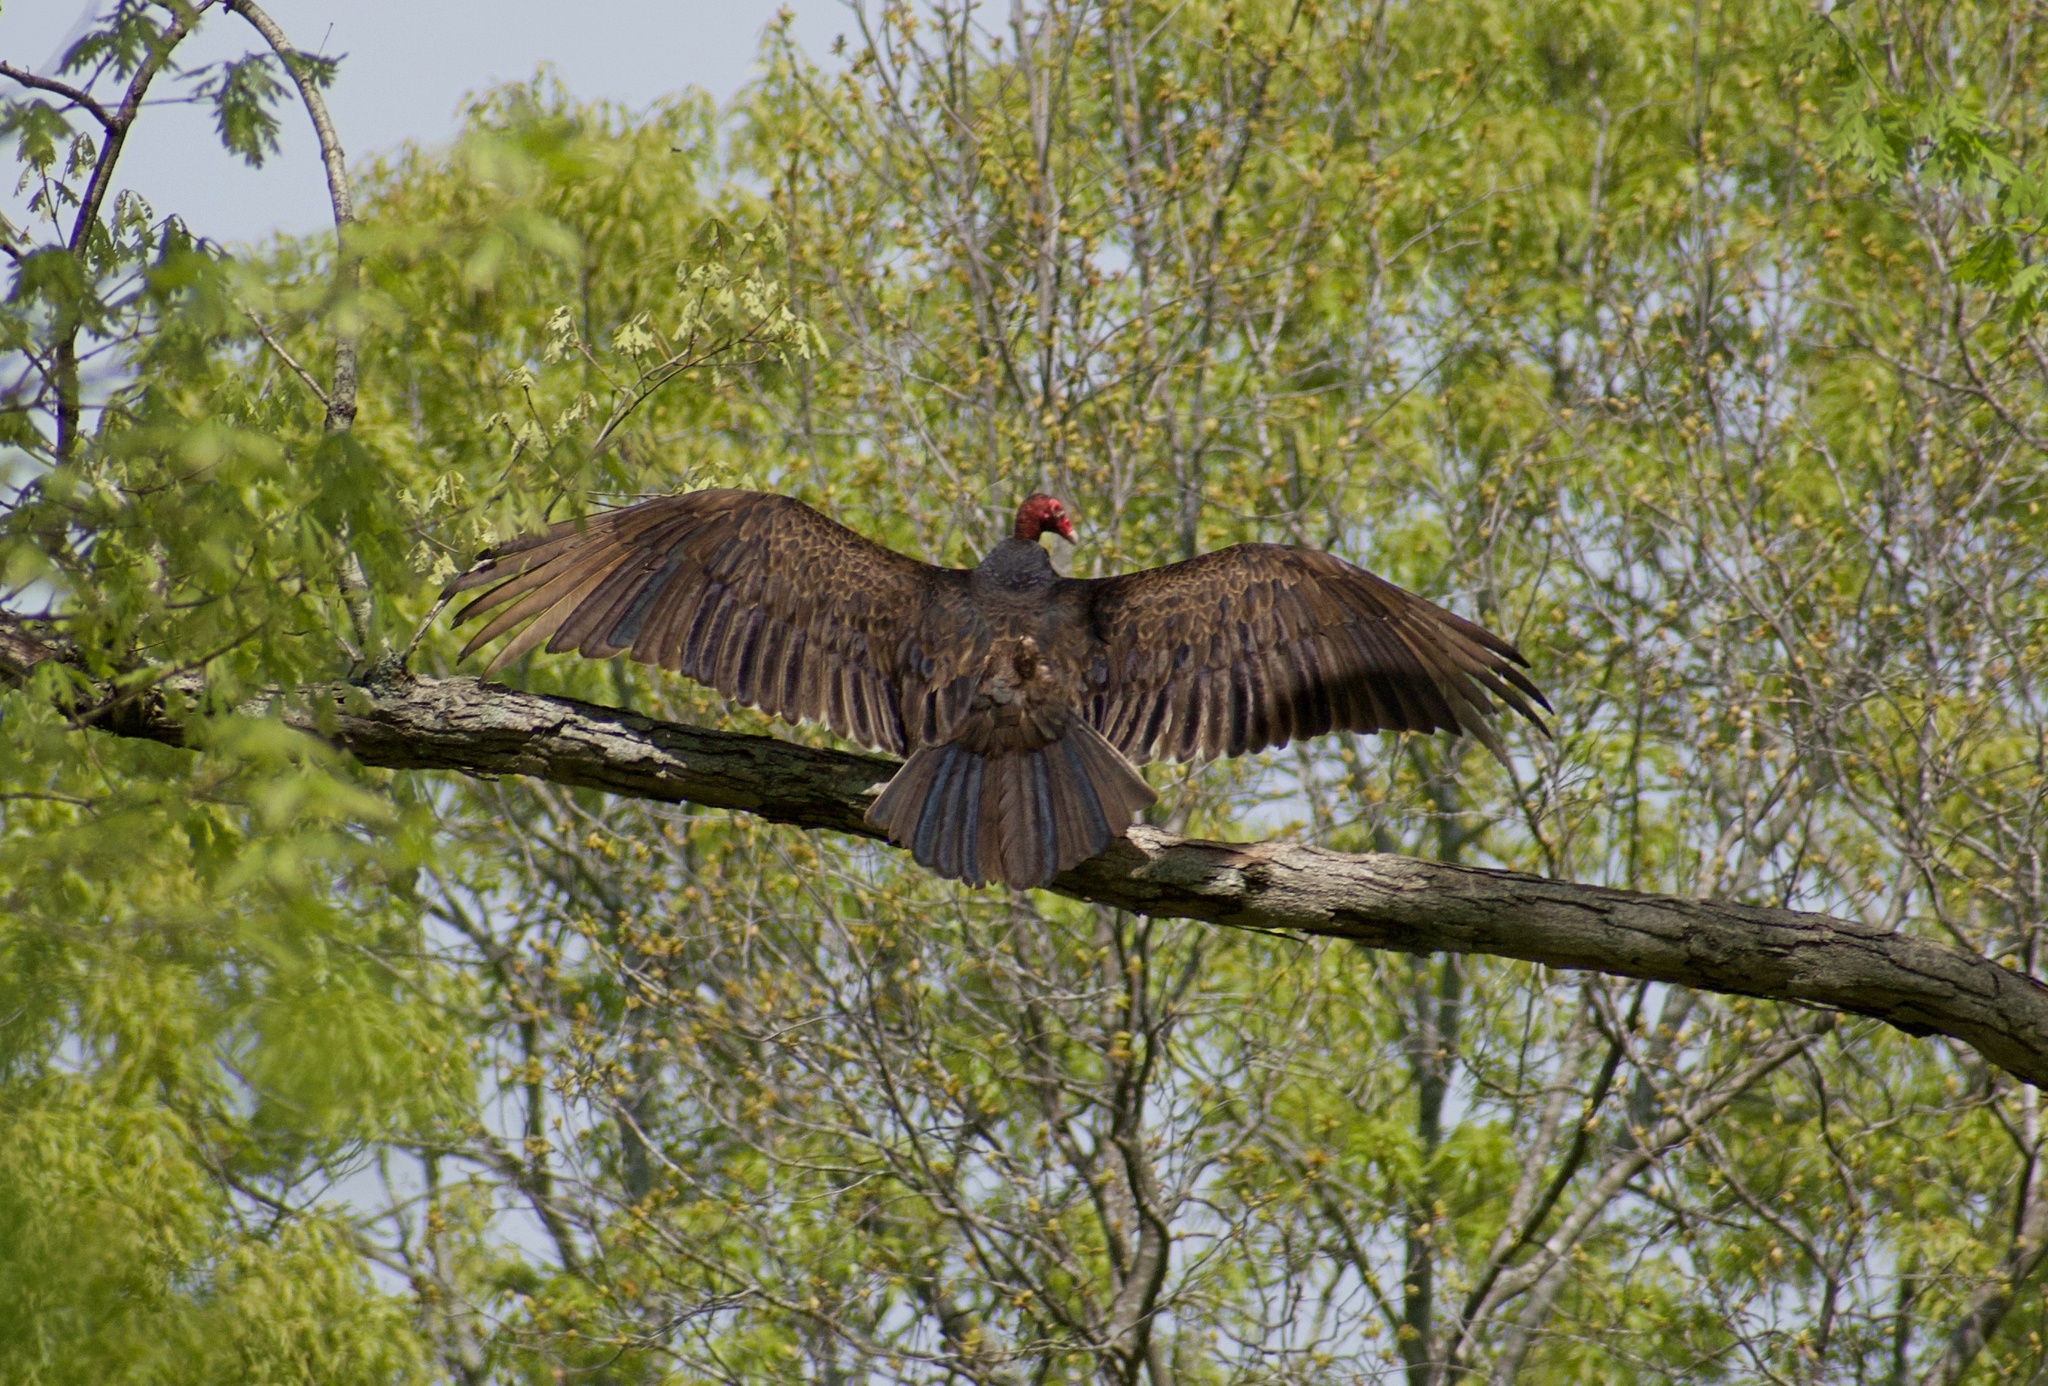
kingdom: Animalia
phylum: Chordata
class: Aves
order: Accipitriformes
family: Cathartidae
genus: Cathartes
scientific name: Cathartes aura
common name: Turkey vulture
